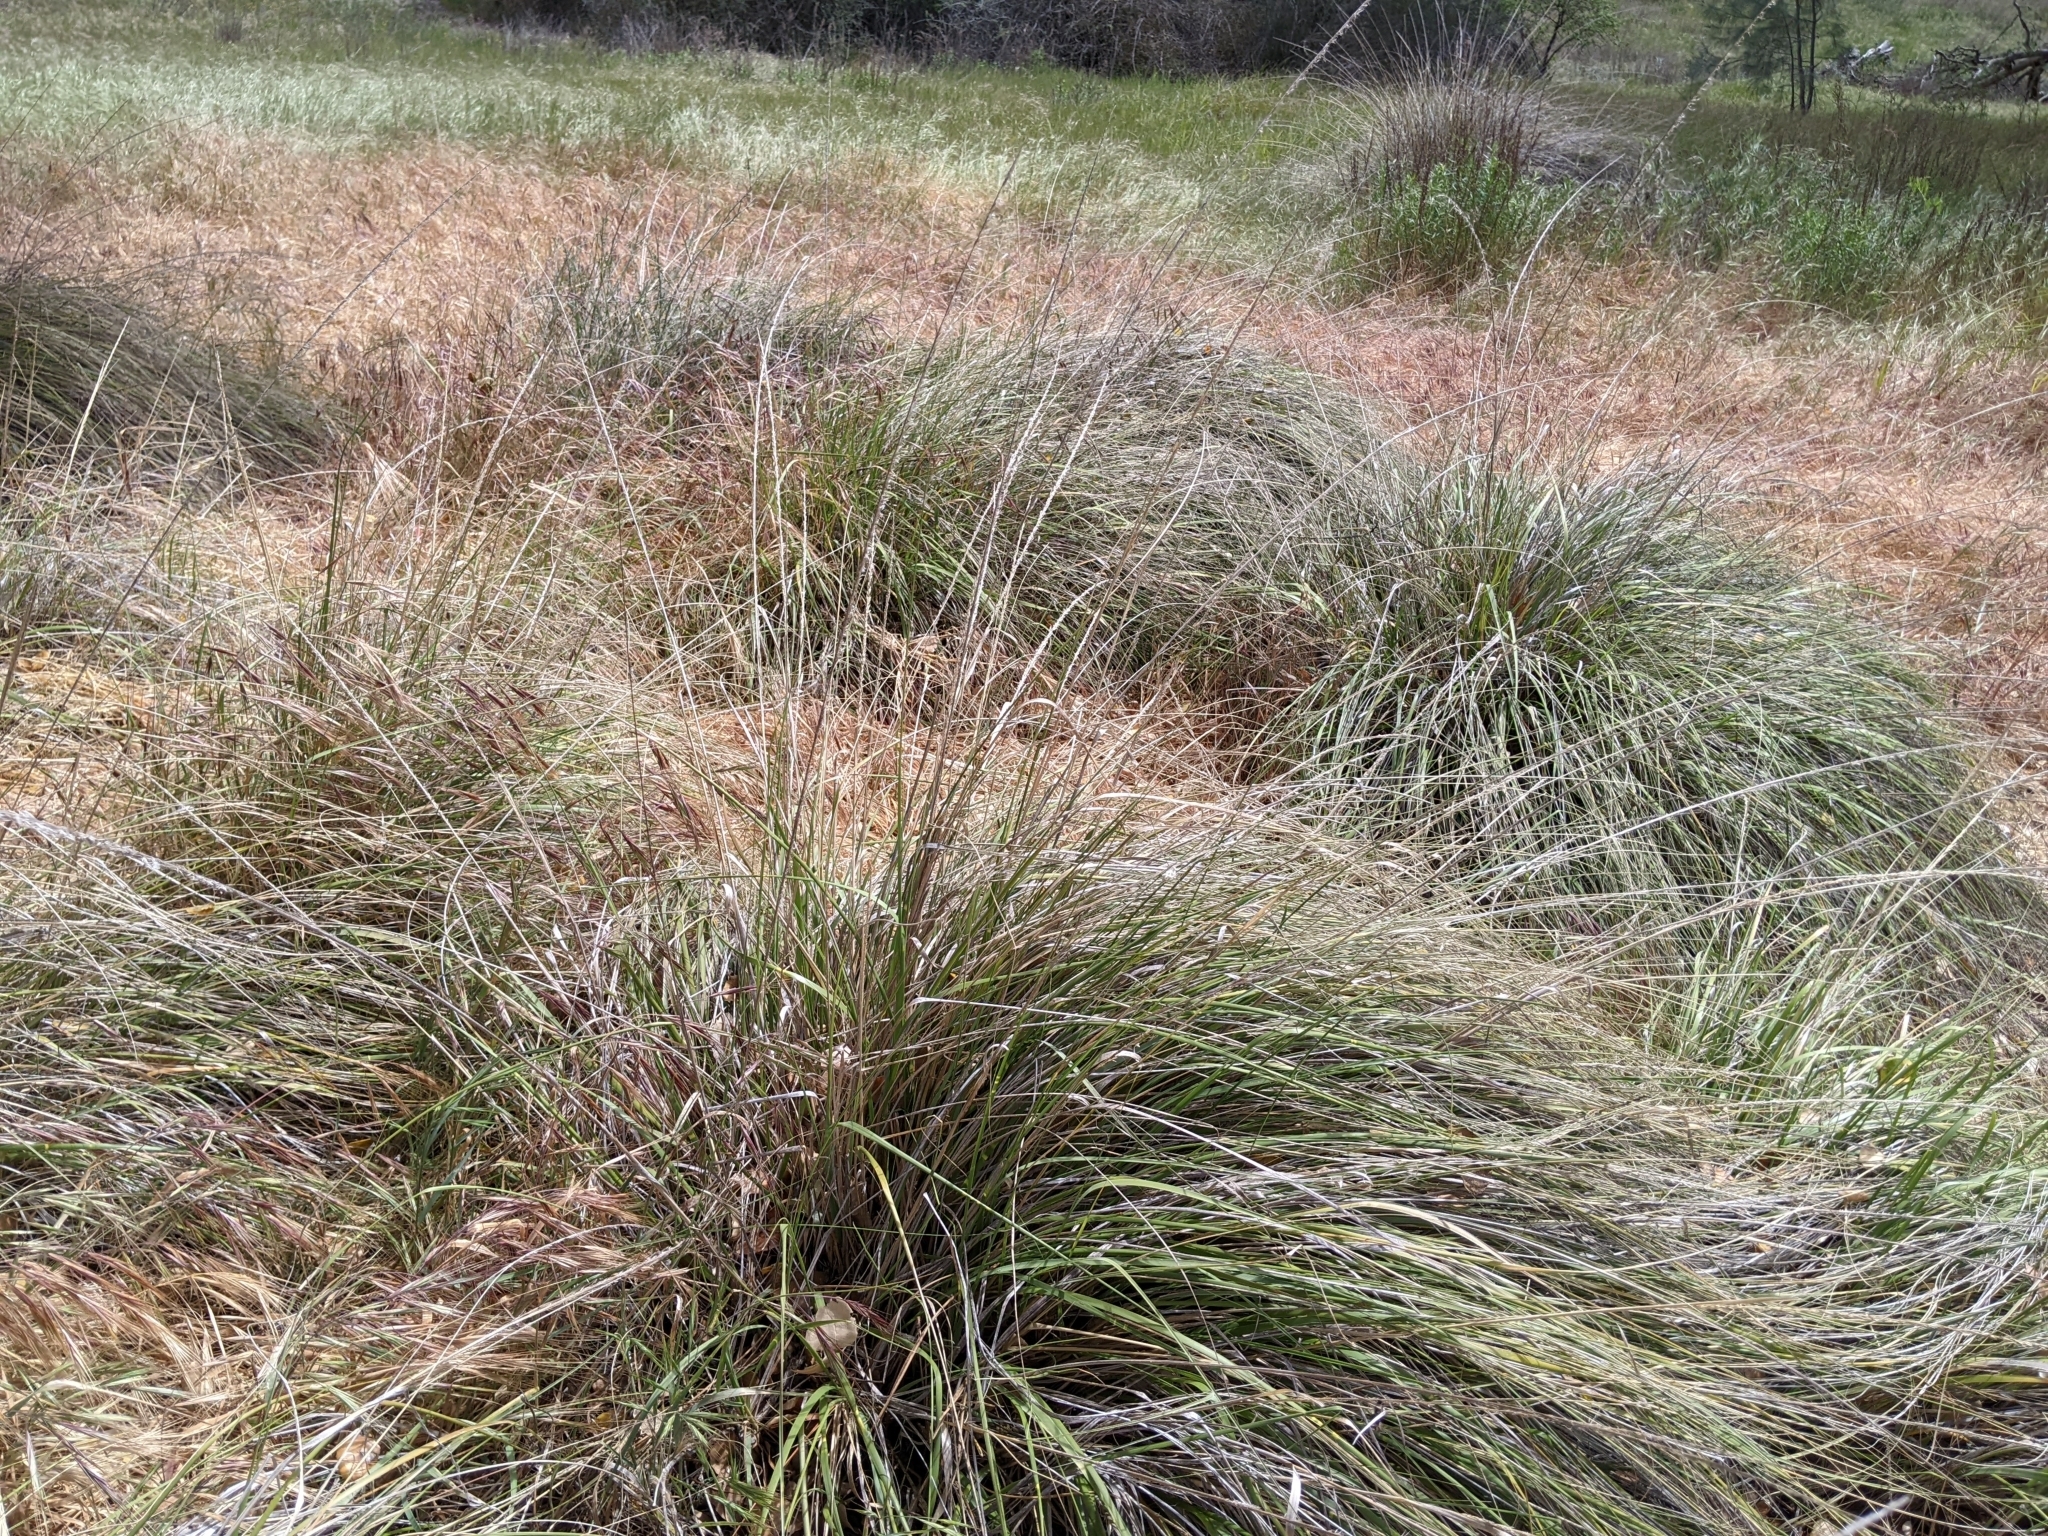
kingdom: Plantae
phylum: Tracheophyta
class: Liliopsida
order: Poales
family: Poaceae
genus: Muhlenbergia
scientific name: Muhlenbergia rigens
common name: Deer grass
